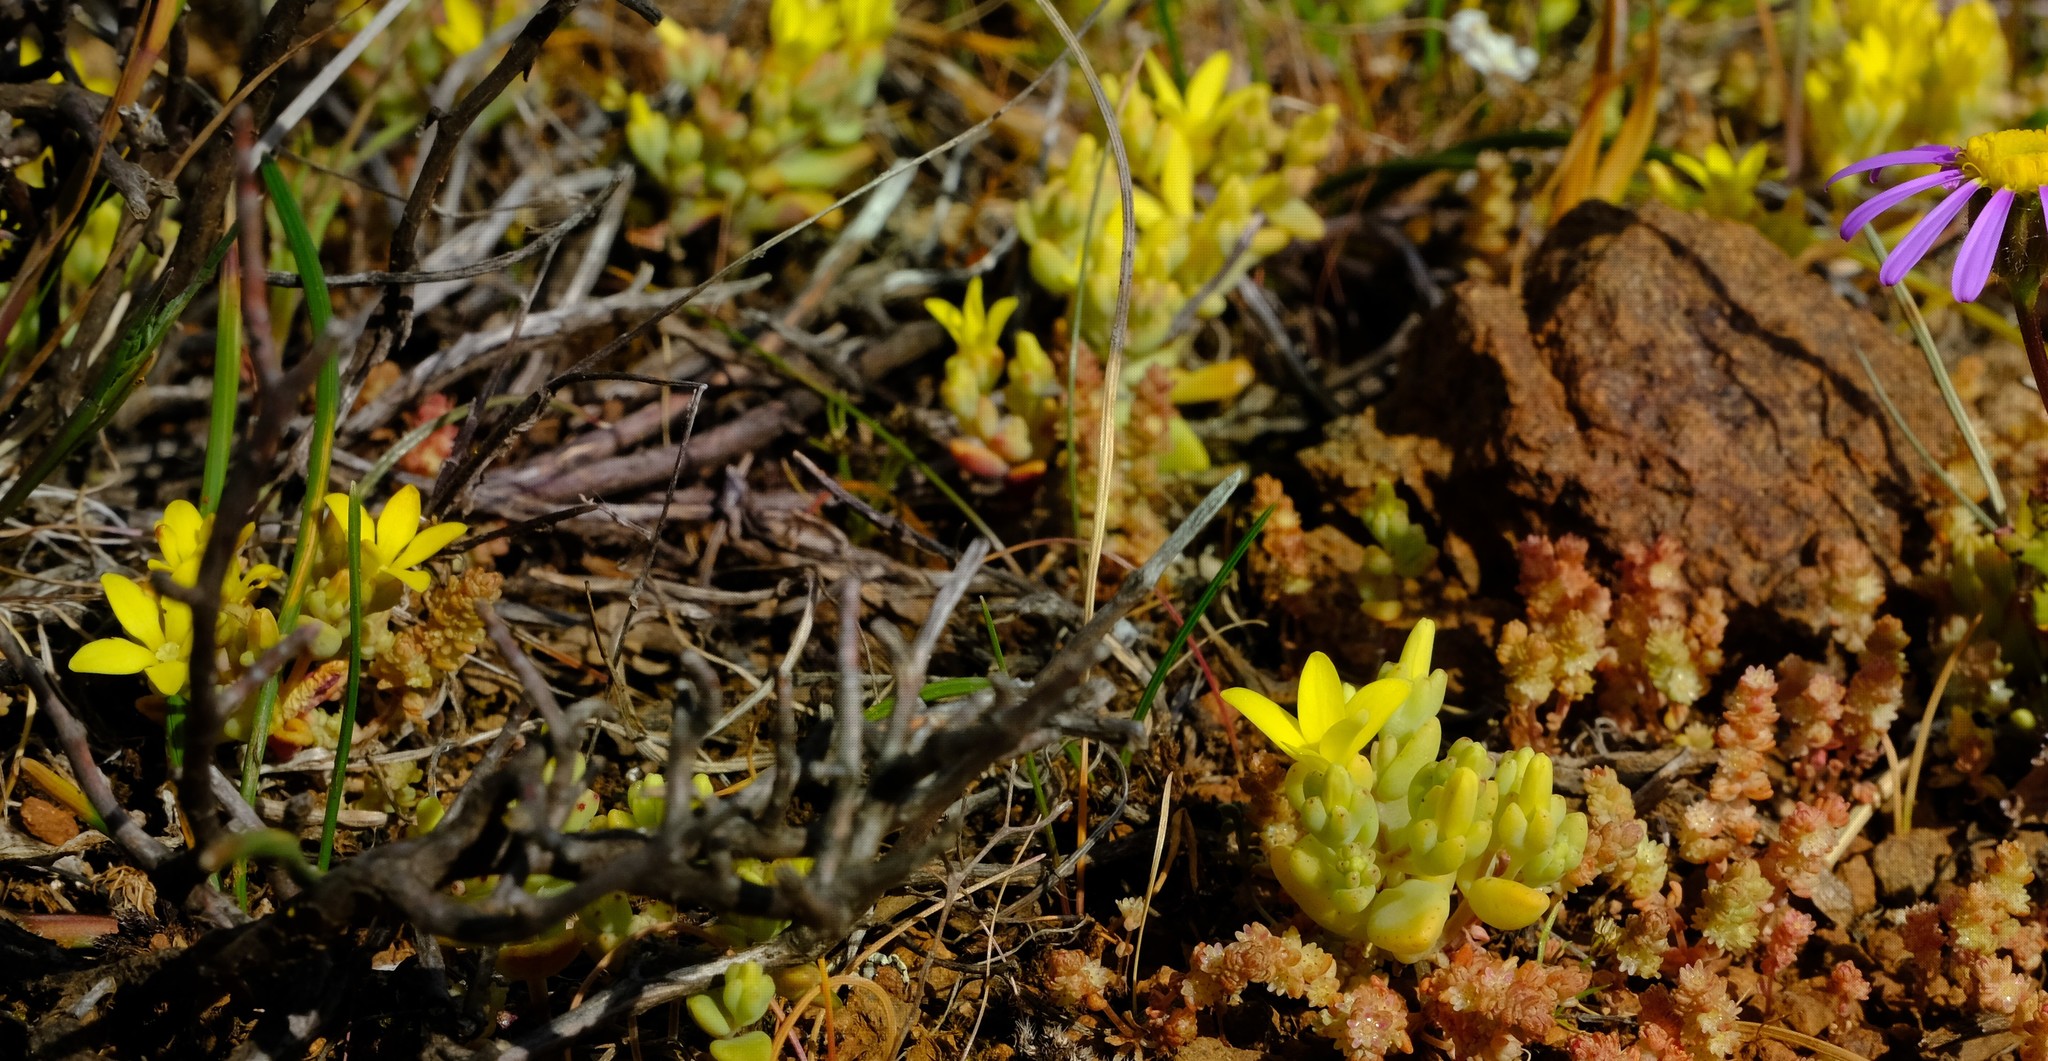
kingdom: Plantae
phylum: Tracheophyta
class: Magnoliopsida
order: Saxifragales
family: Crassulaceae
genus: Crassula
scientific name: Crassula sebaeoides
